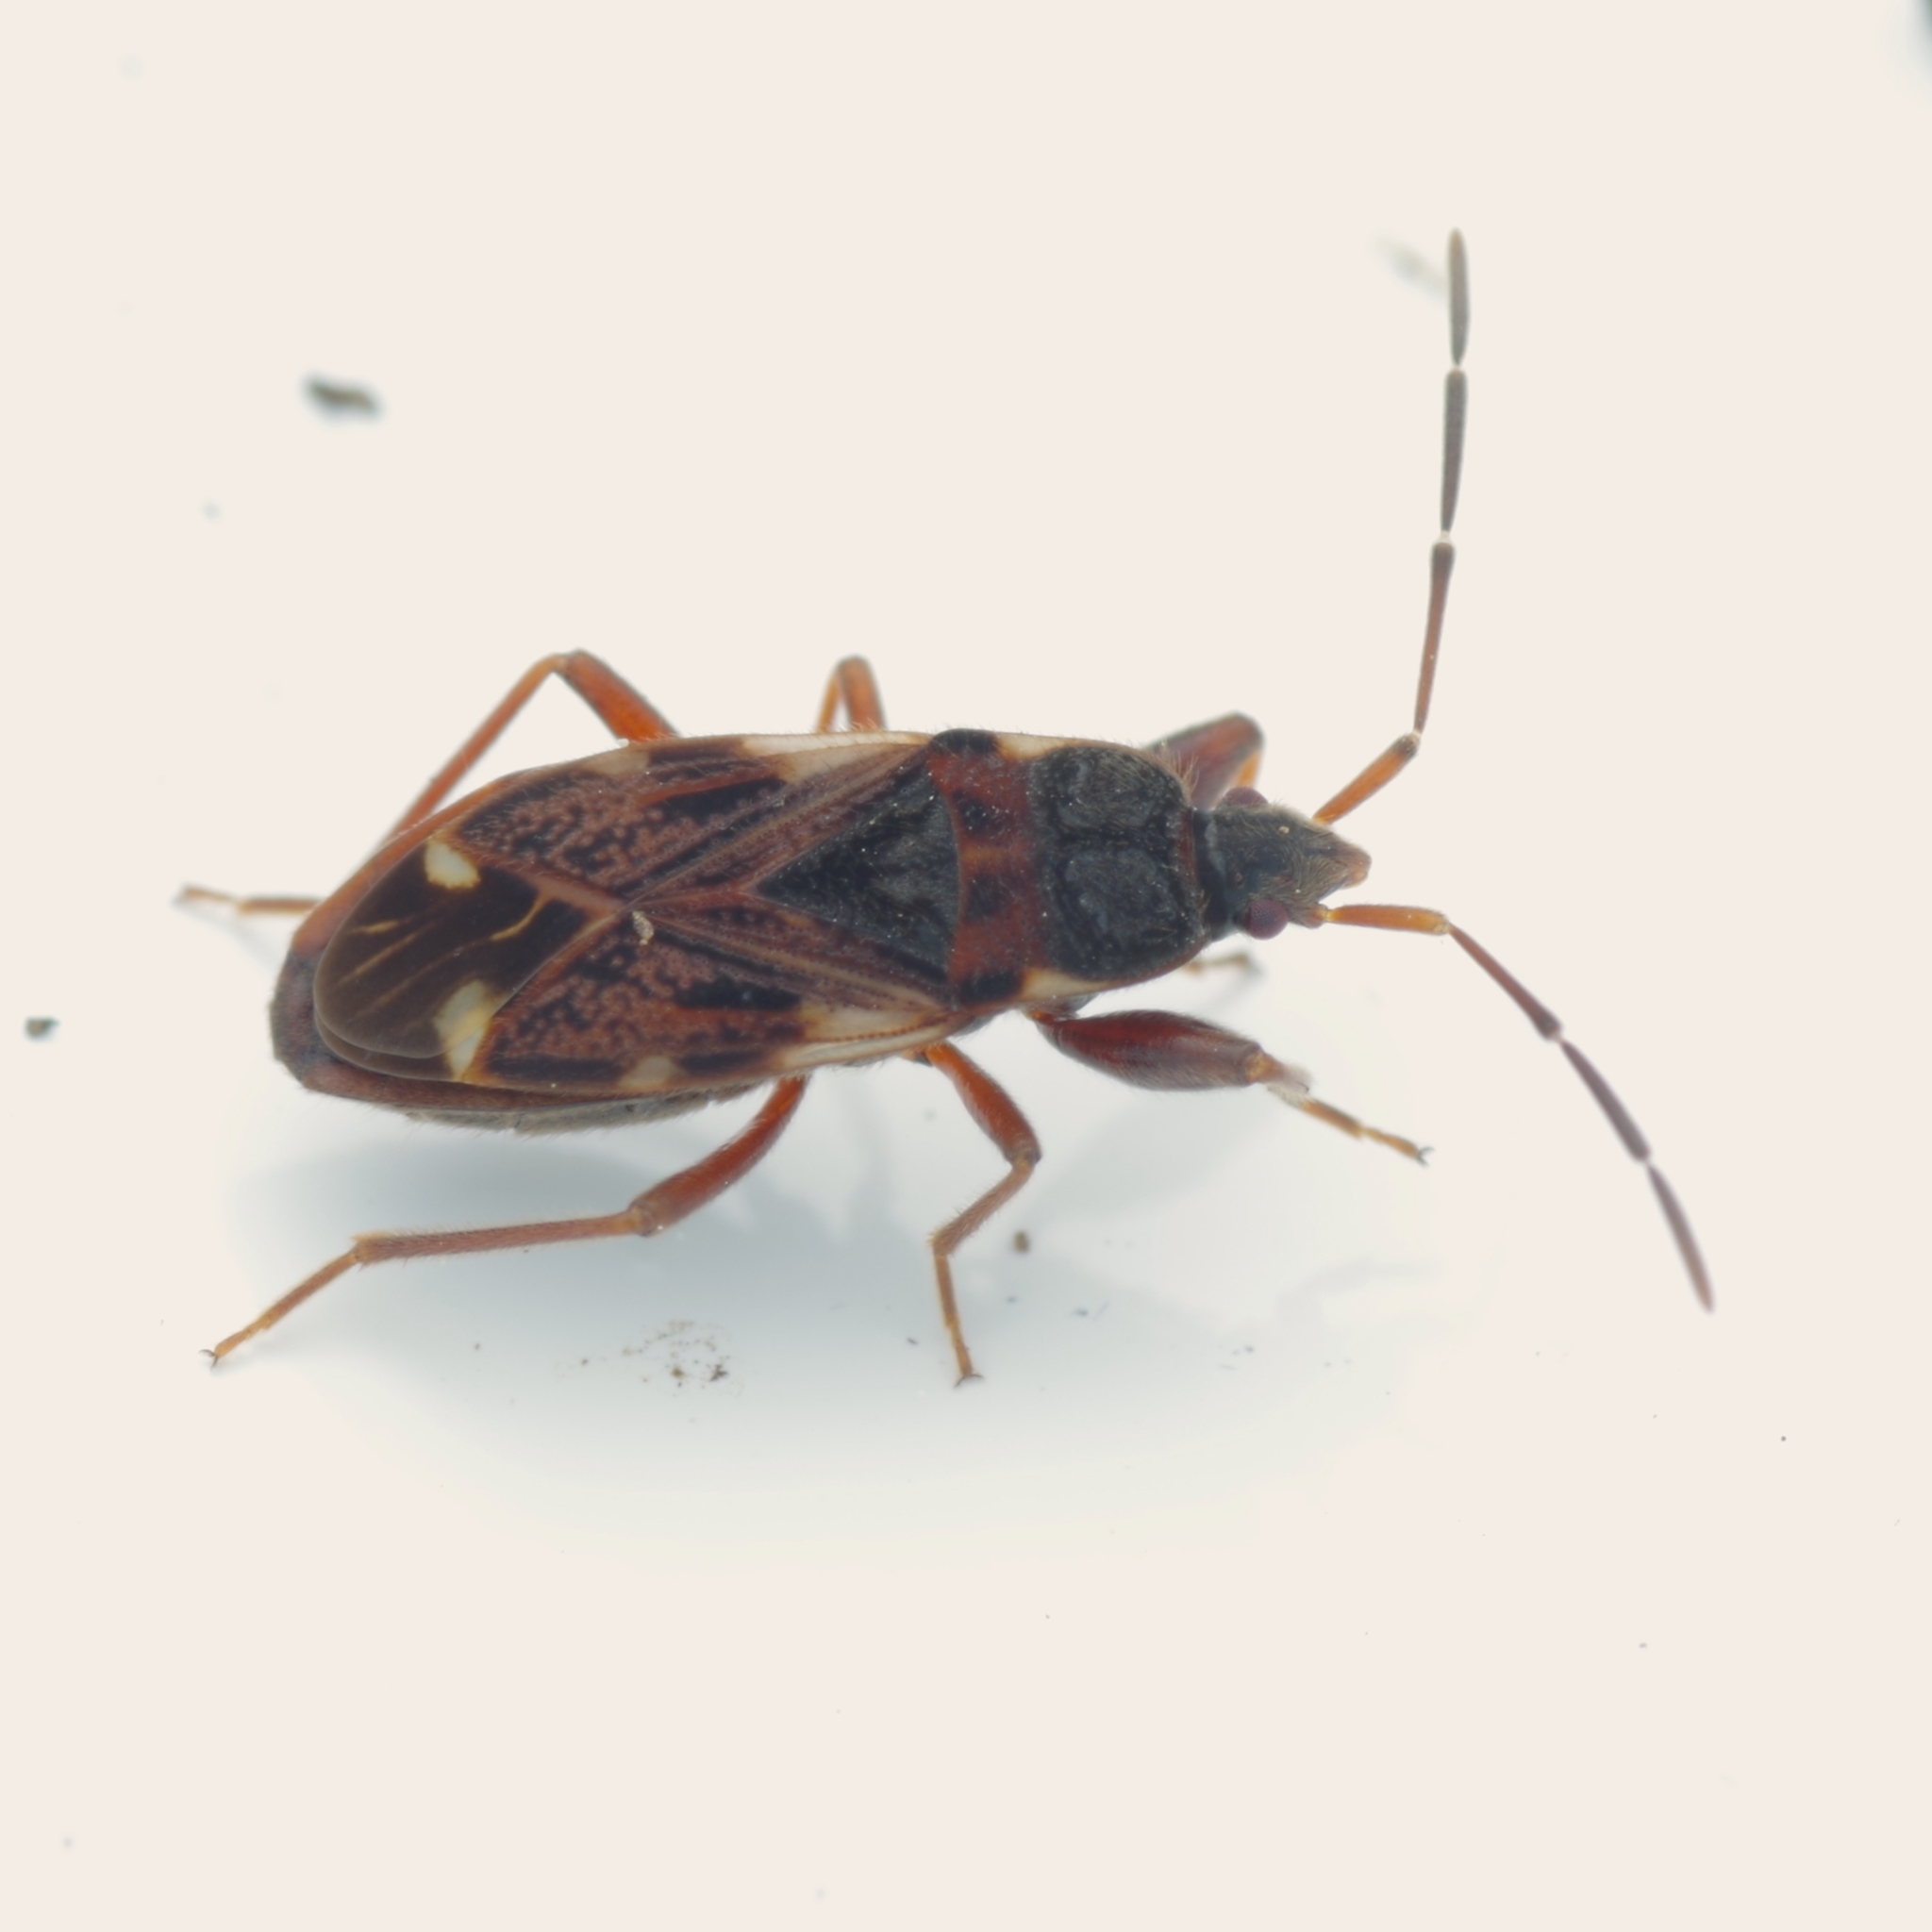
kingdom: Animalia
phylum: Arthropoda
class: Insecta
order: Hemiptera
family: Rhyparochromidae
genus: Eremocoris
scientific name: Eremocoris podagricus
